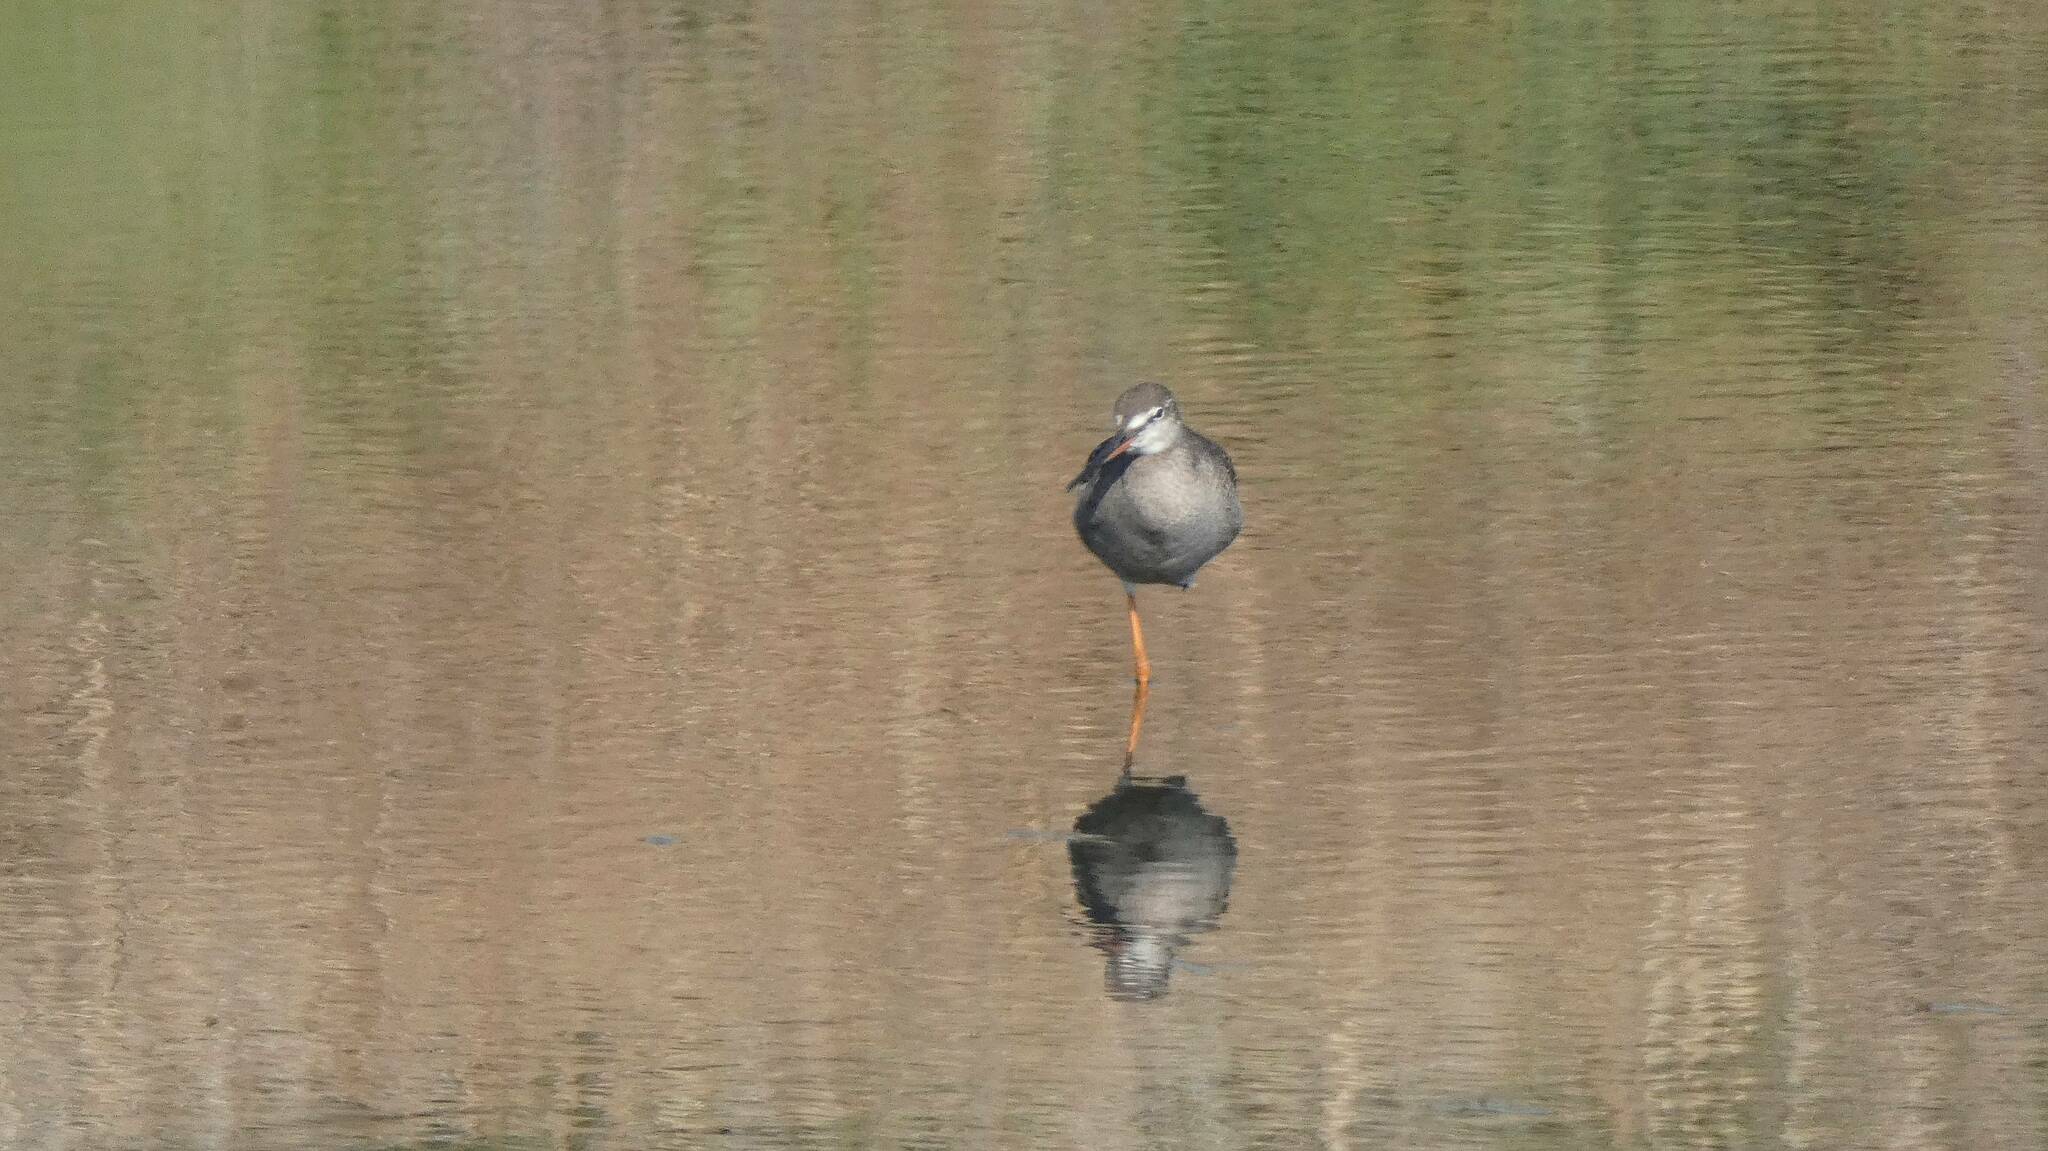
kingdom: Animalia
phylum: Chordata
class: Aves
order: Charadriiformes
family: Scolopacidae
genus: Tringa
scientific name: Tringa erythropus
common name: Spotted redshank
